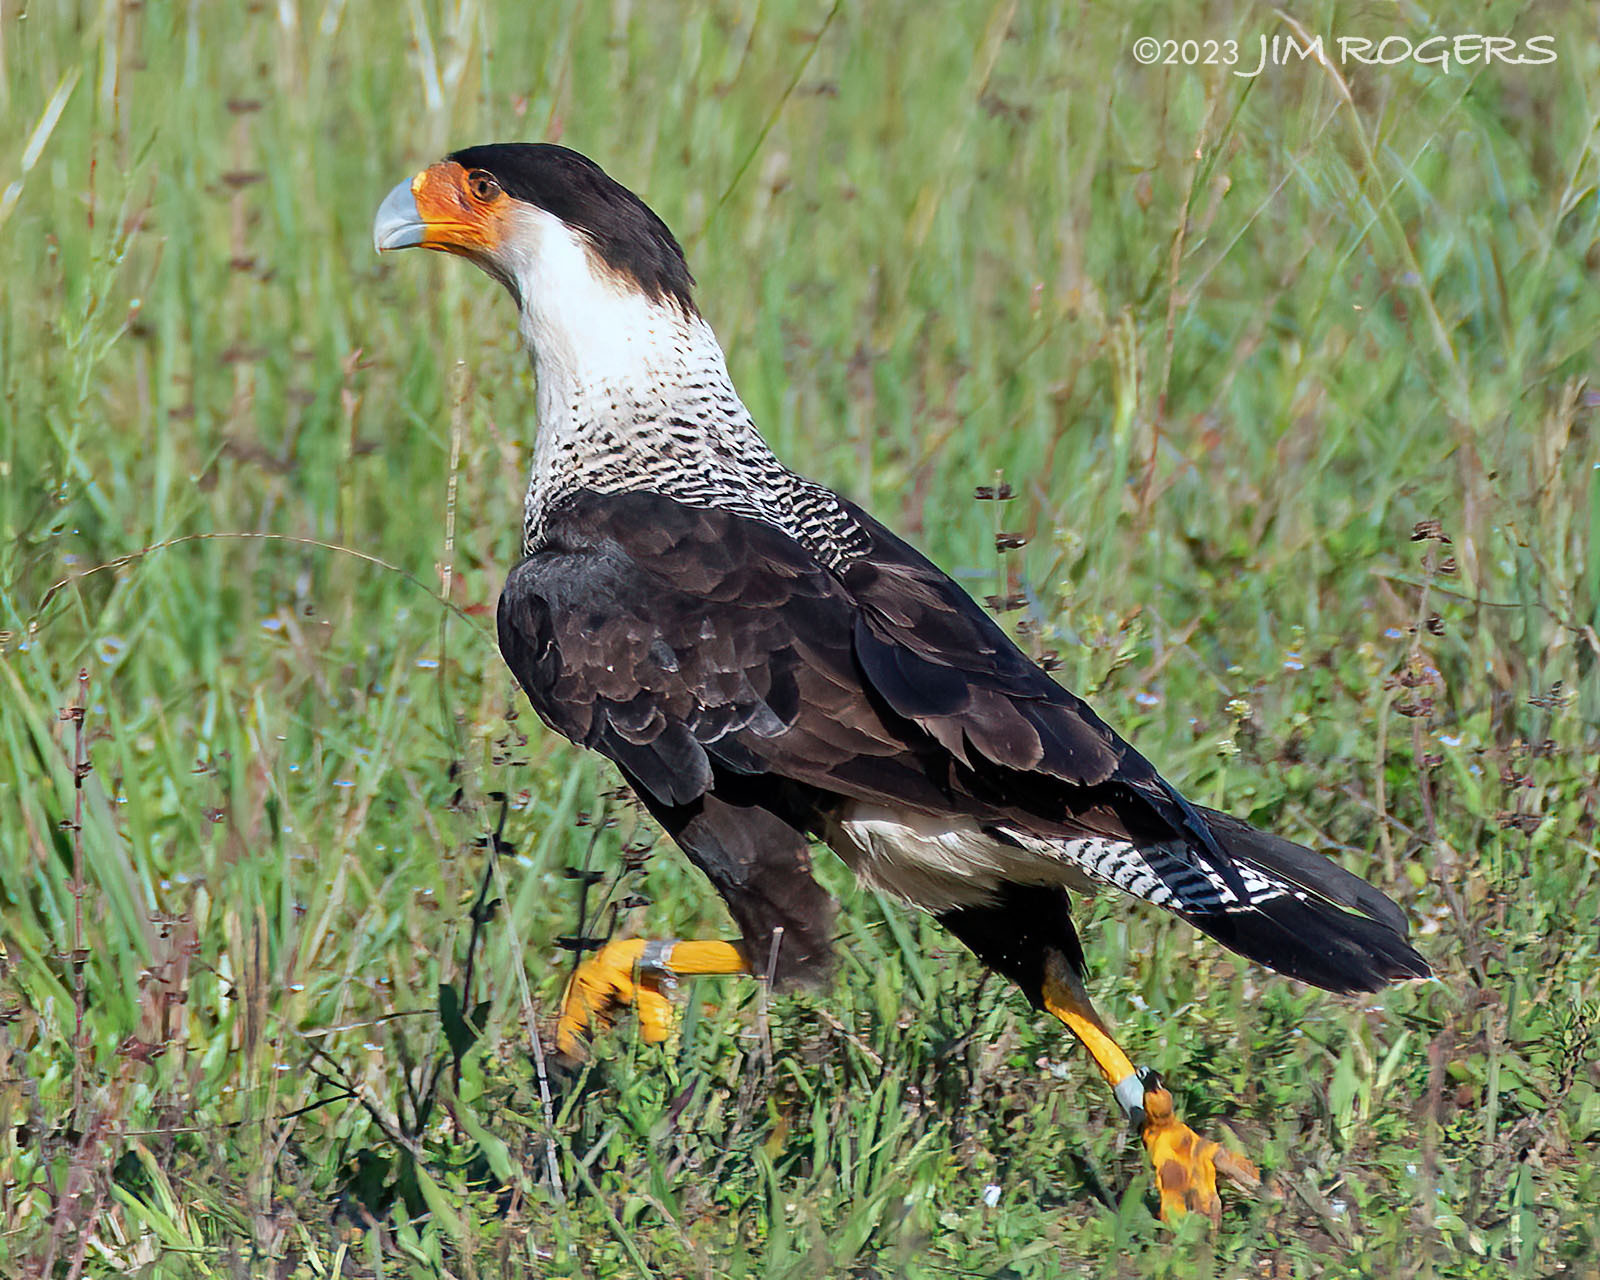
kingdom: Animalia
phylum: Chordata
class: Aves
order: Falconiformes
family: Falconidae
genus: Caracara
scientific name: Caracara plancus
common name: Southern caracara
